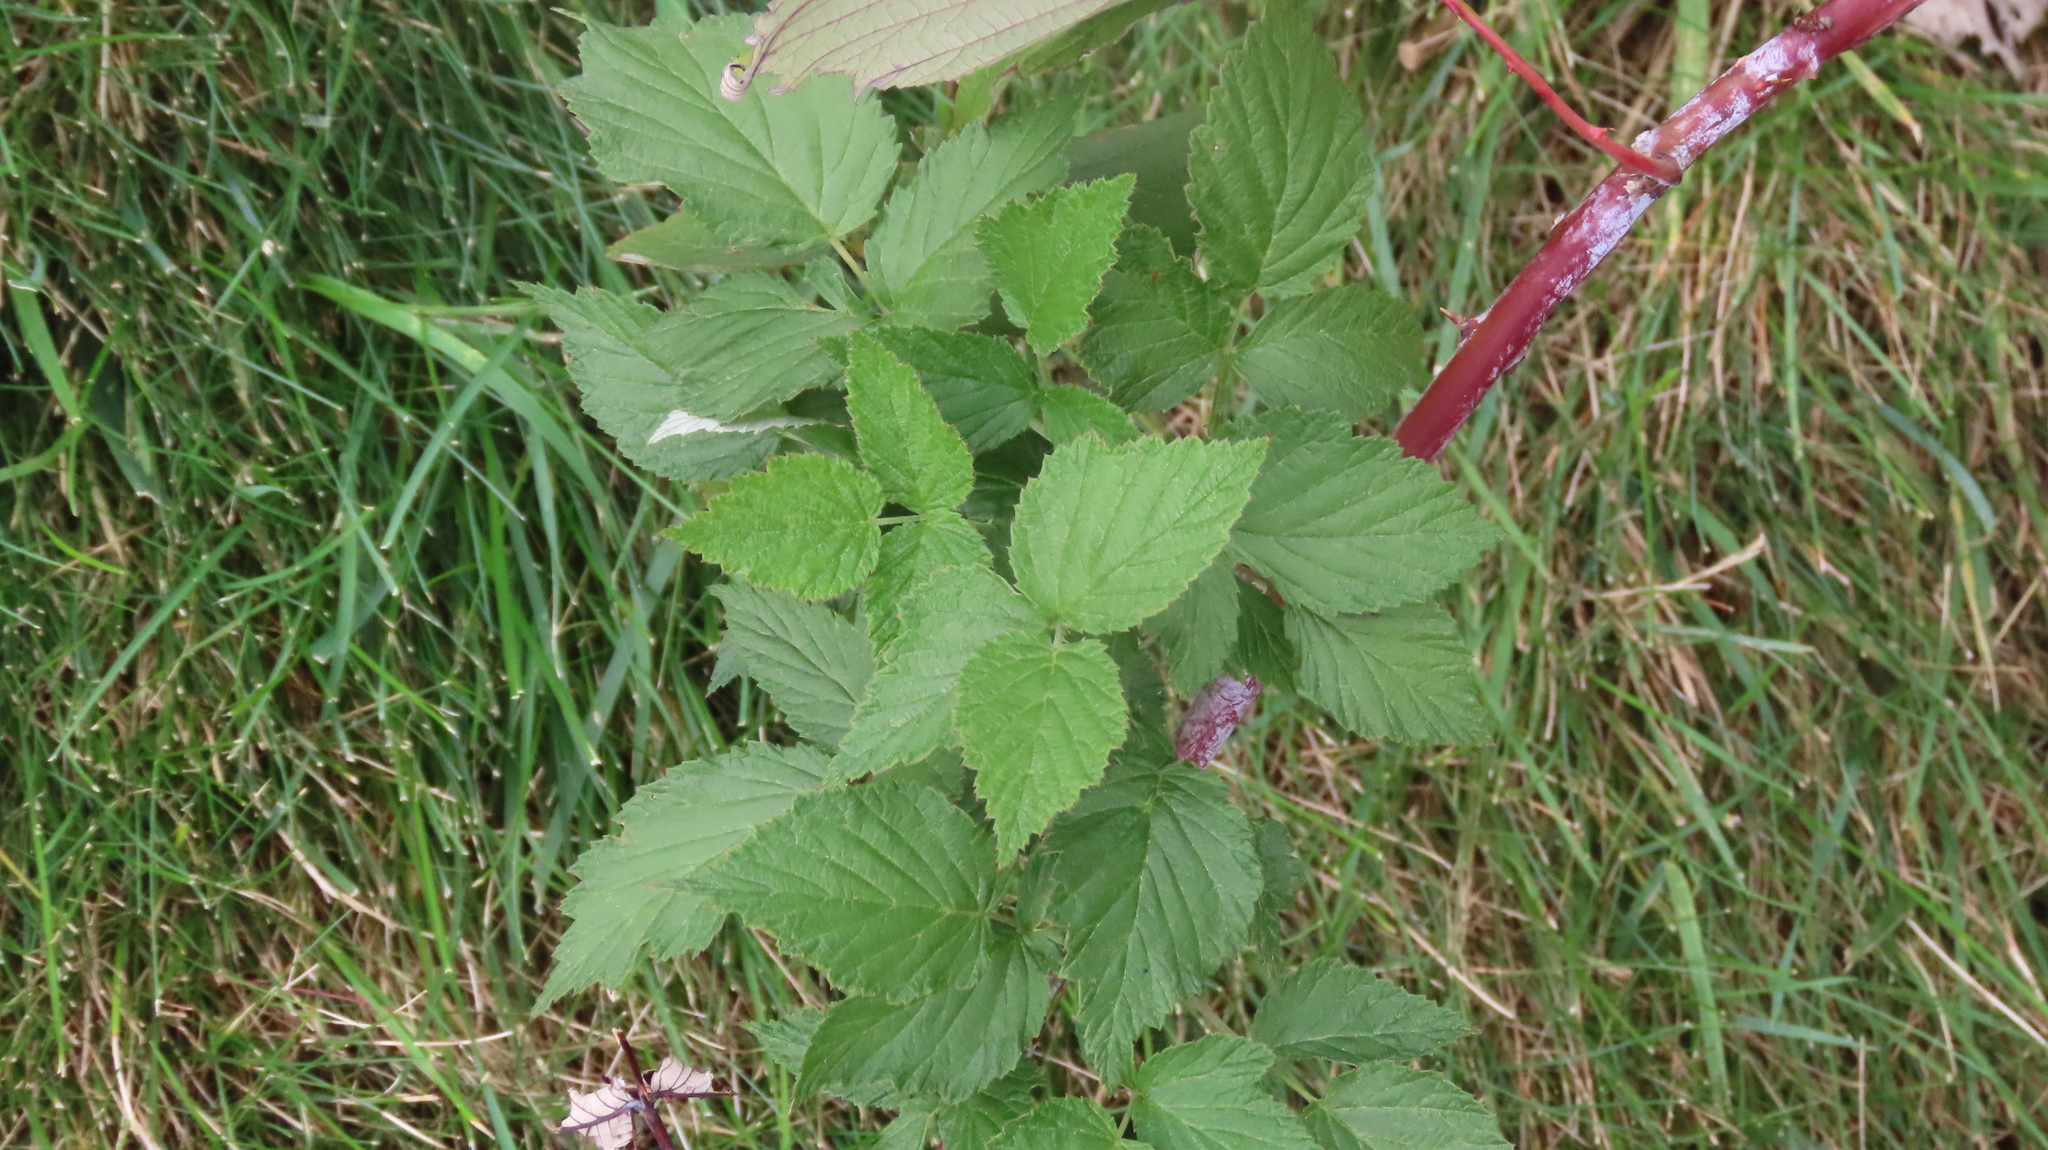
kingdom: Plantae
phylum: Tracheophyta
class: Magnoliopsida
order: Rosales
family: Rosaceae
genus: Rubus
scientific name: Rubus occidentalis
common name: Black raspberry
